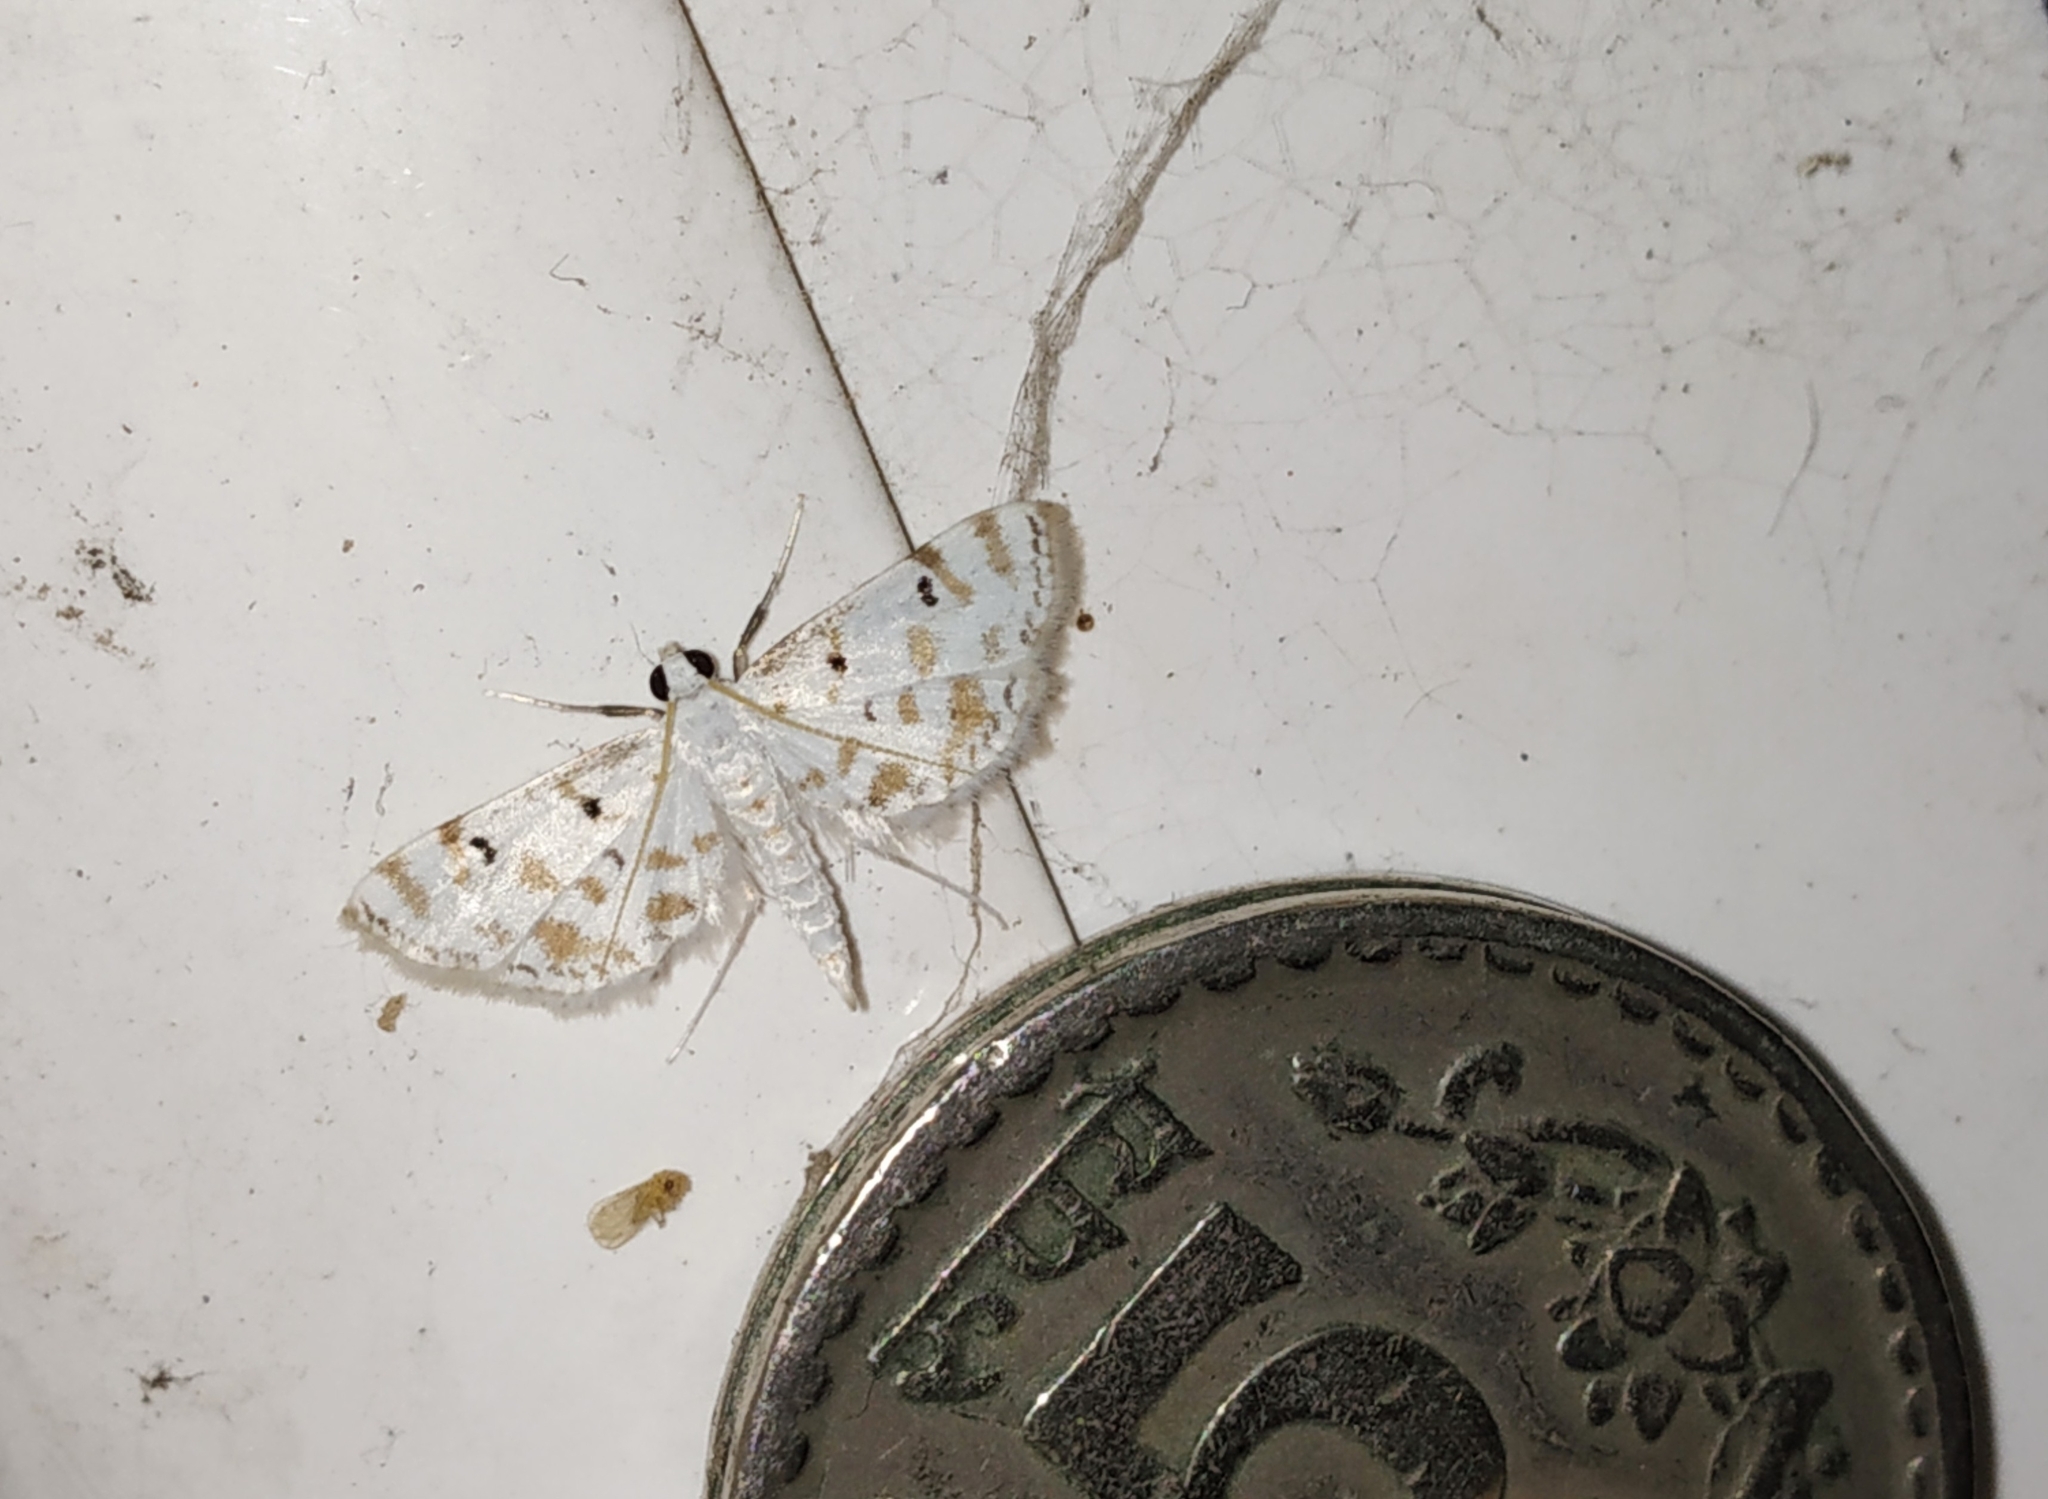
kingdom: Animalia
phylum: Arthropoda
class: Insecta
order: Lepidoptera
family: Crambidae
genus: Parapoynx
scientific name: Parapoynx stagnalis
